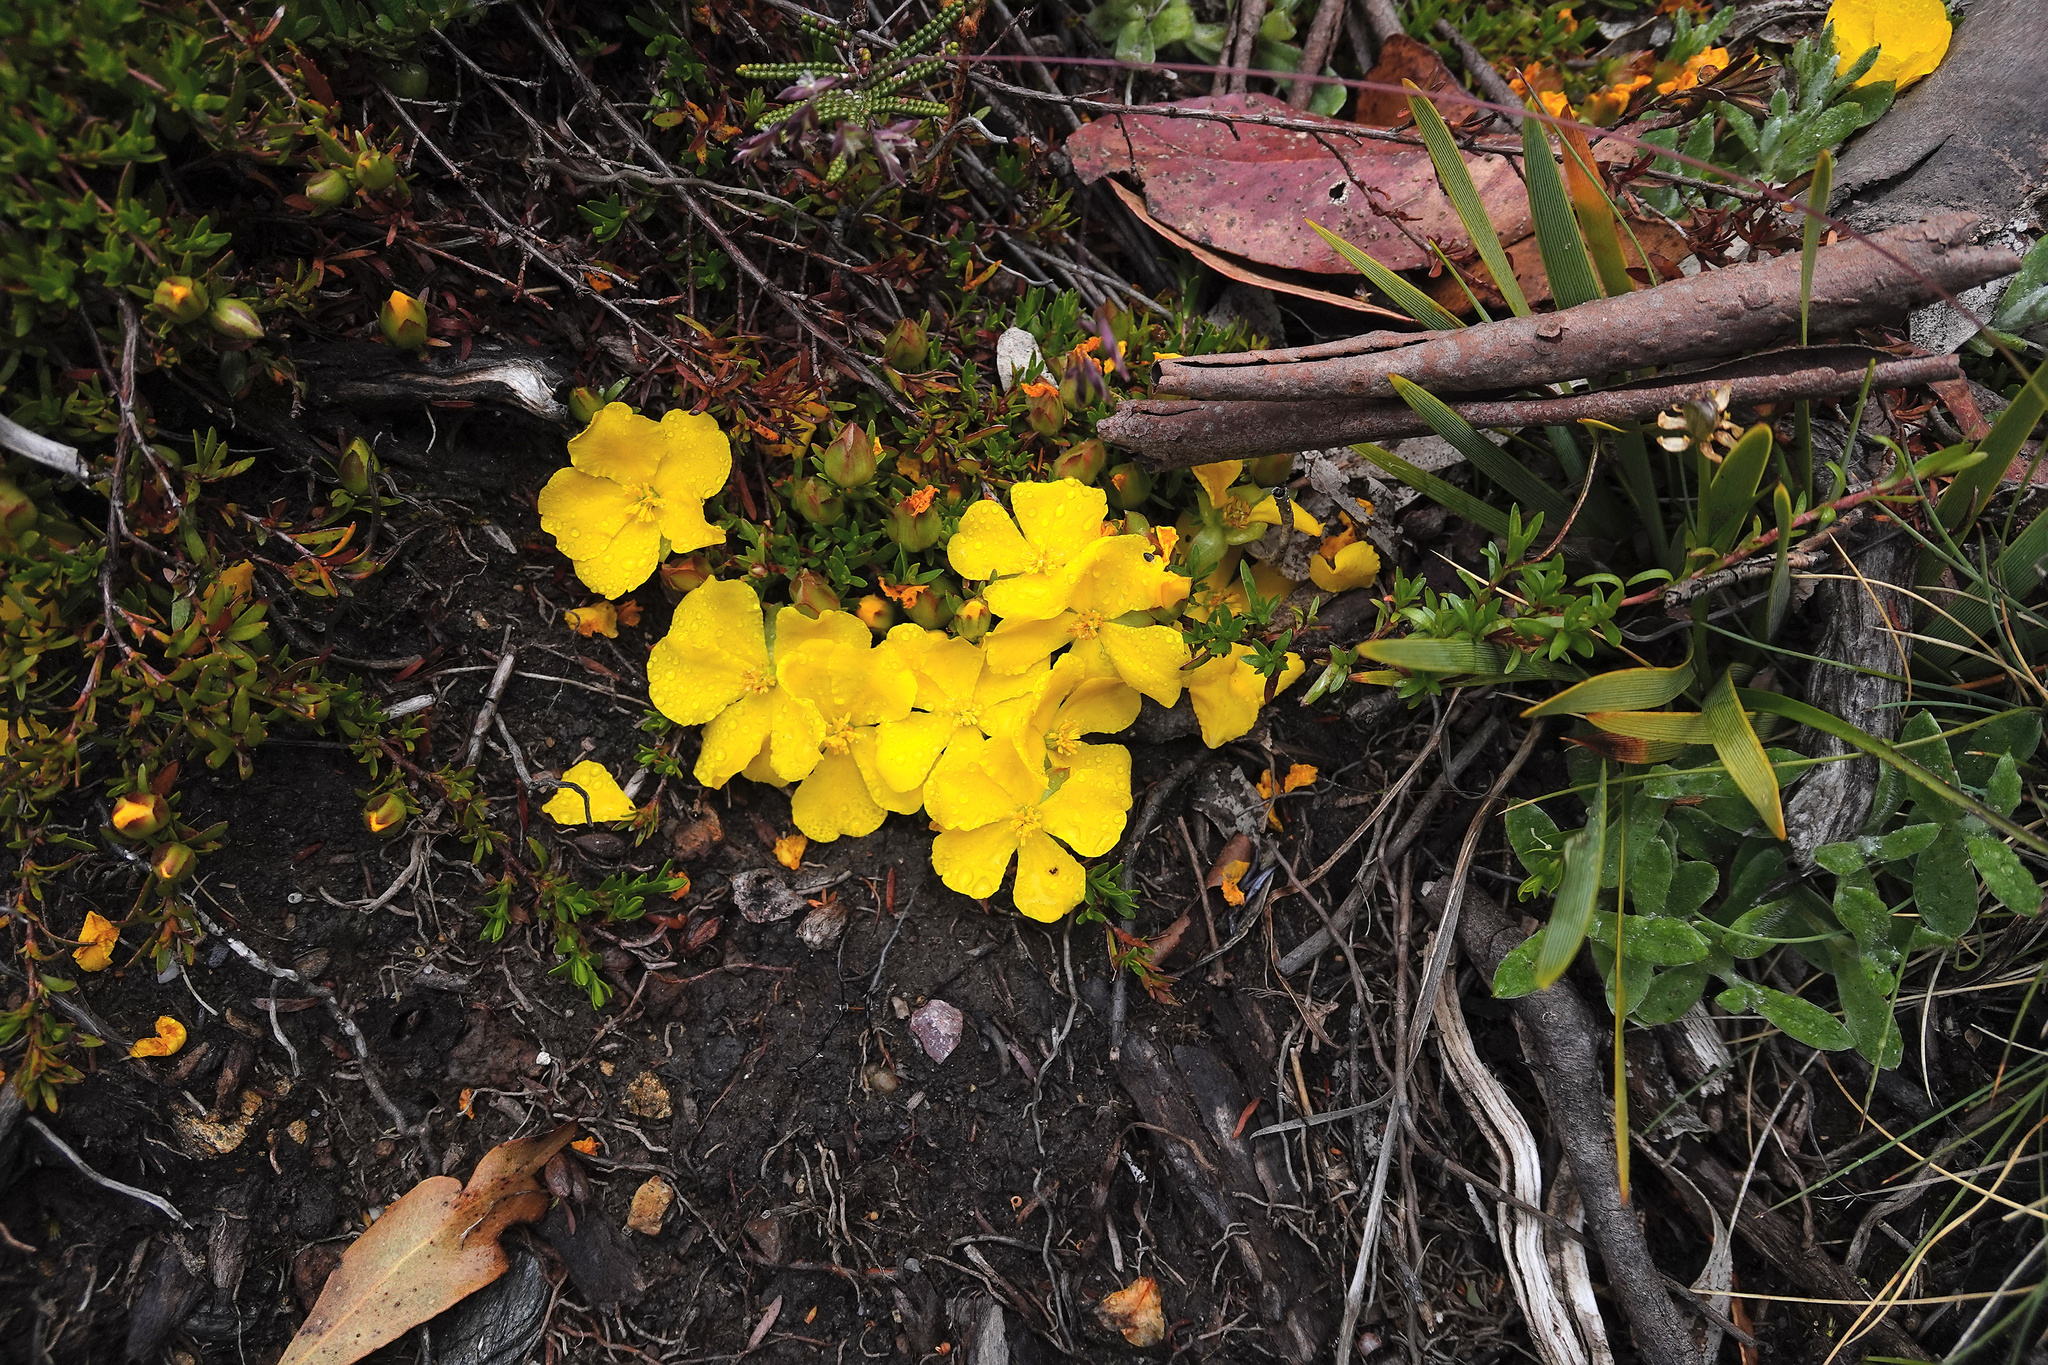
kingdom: Plantae
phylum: Tracheophyta
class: Magnoliopsida
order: Dilleniales
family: Dilleniaceae
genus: Hibbertia
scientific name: Hibbertia procumbens
